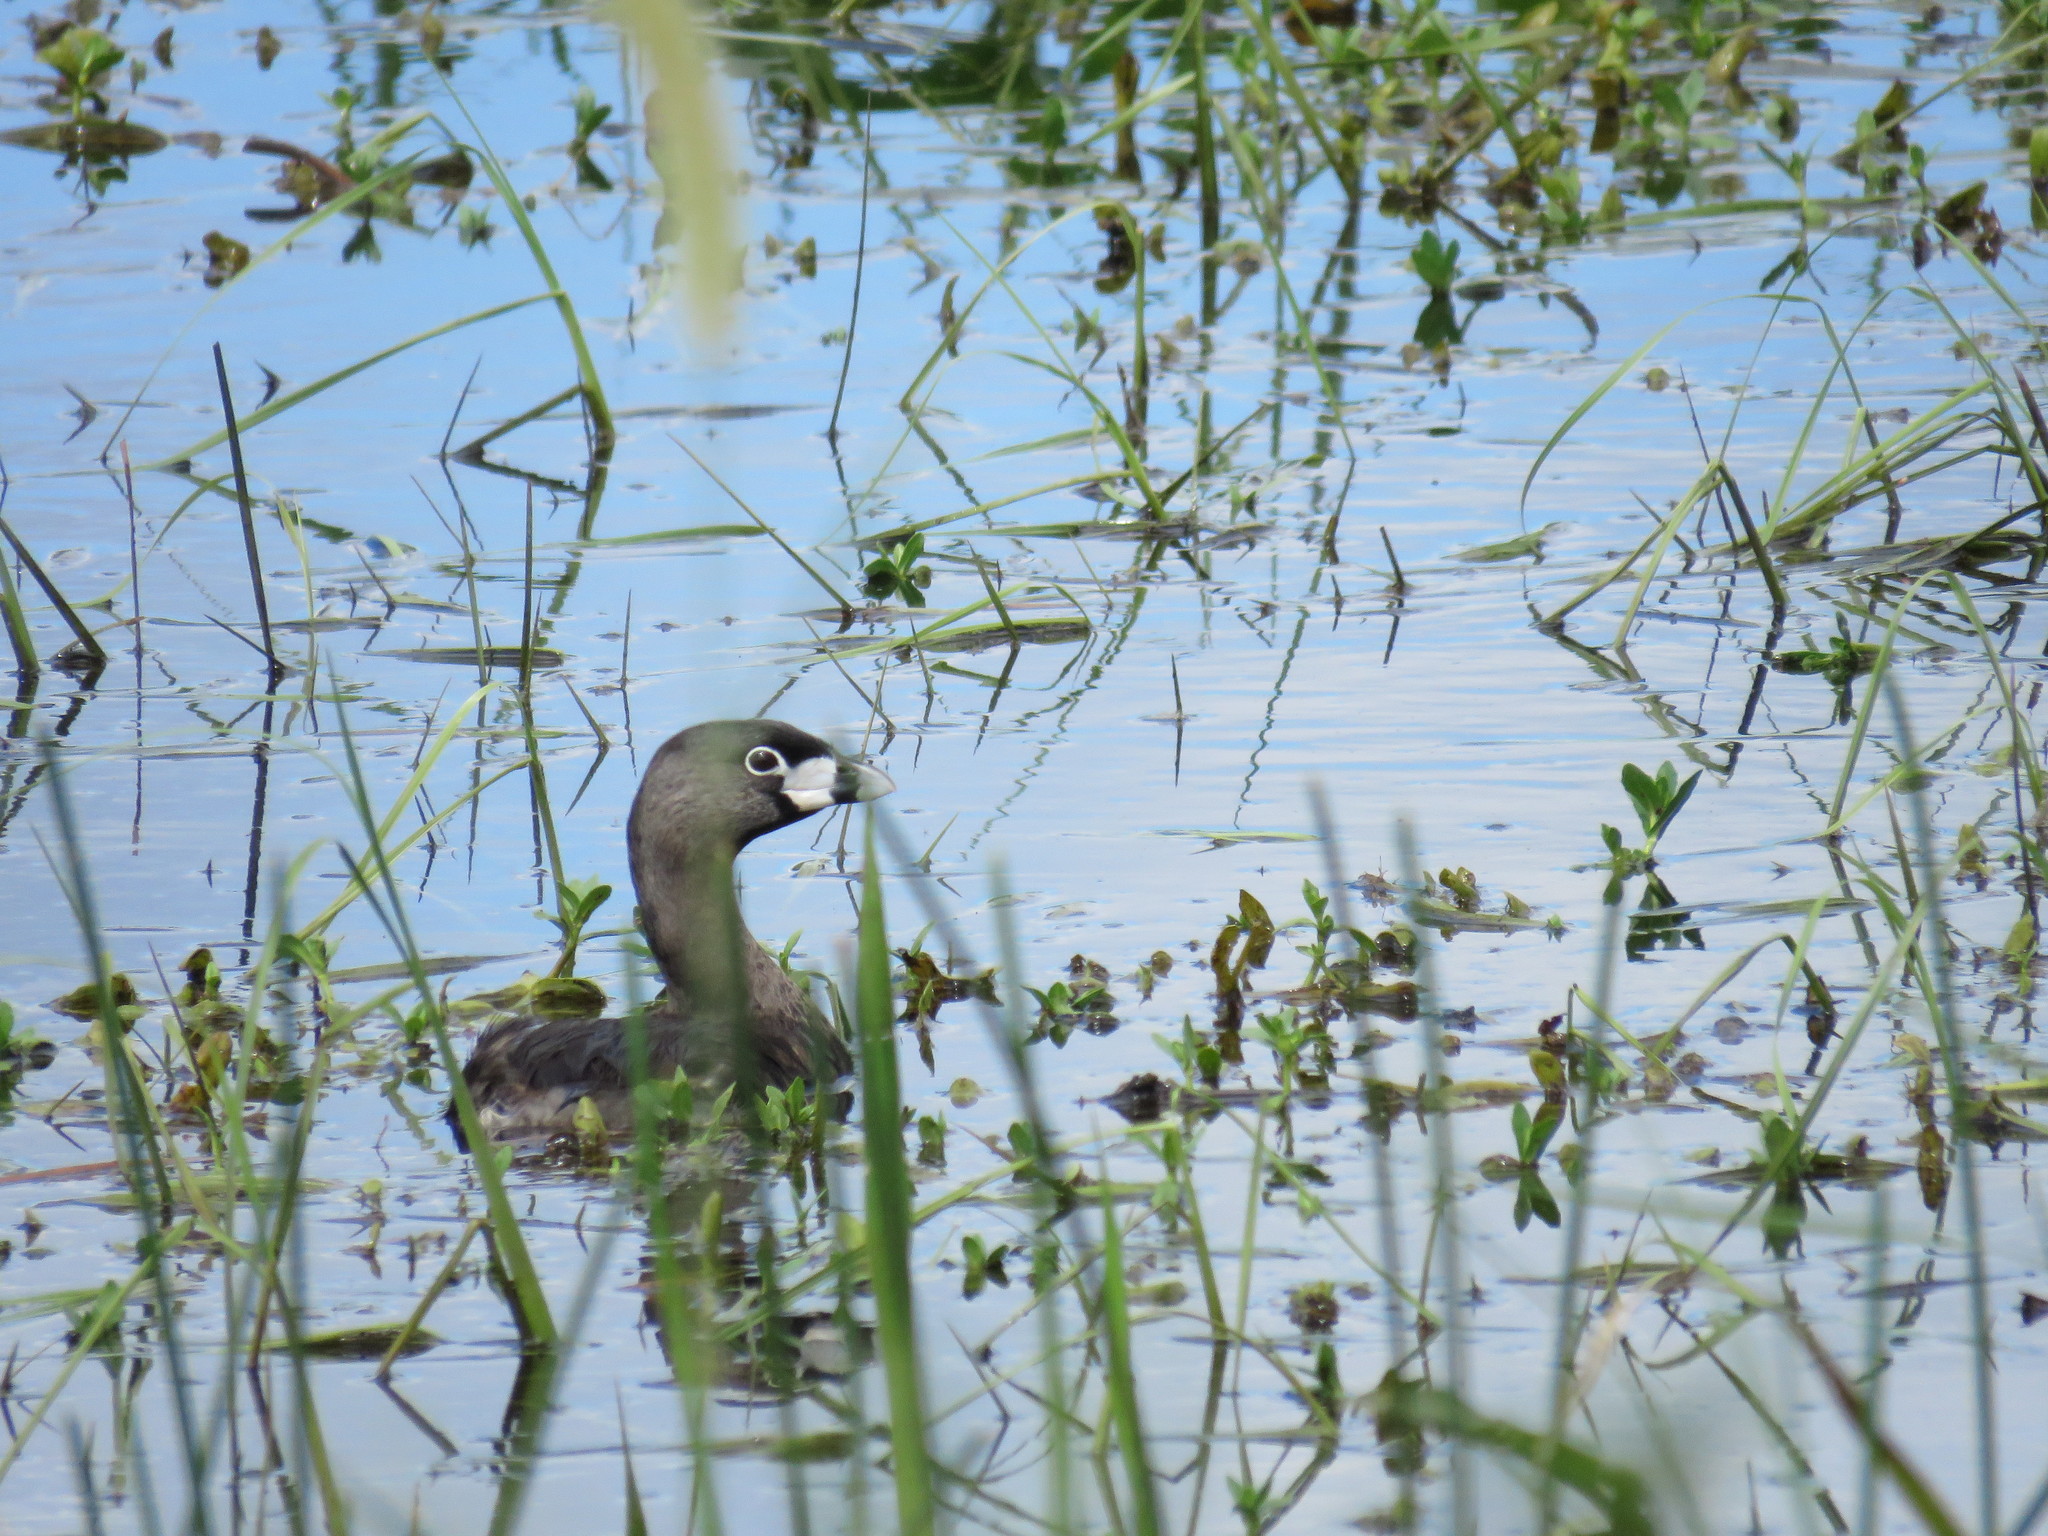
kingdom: Animalia
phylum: Chordata
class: Aves
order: Podicipediformes
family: Podicipedidae
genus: Podilymbus
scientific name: Podilymbus podiceps
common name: Pied-billed grebe
